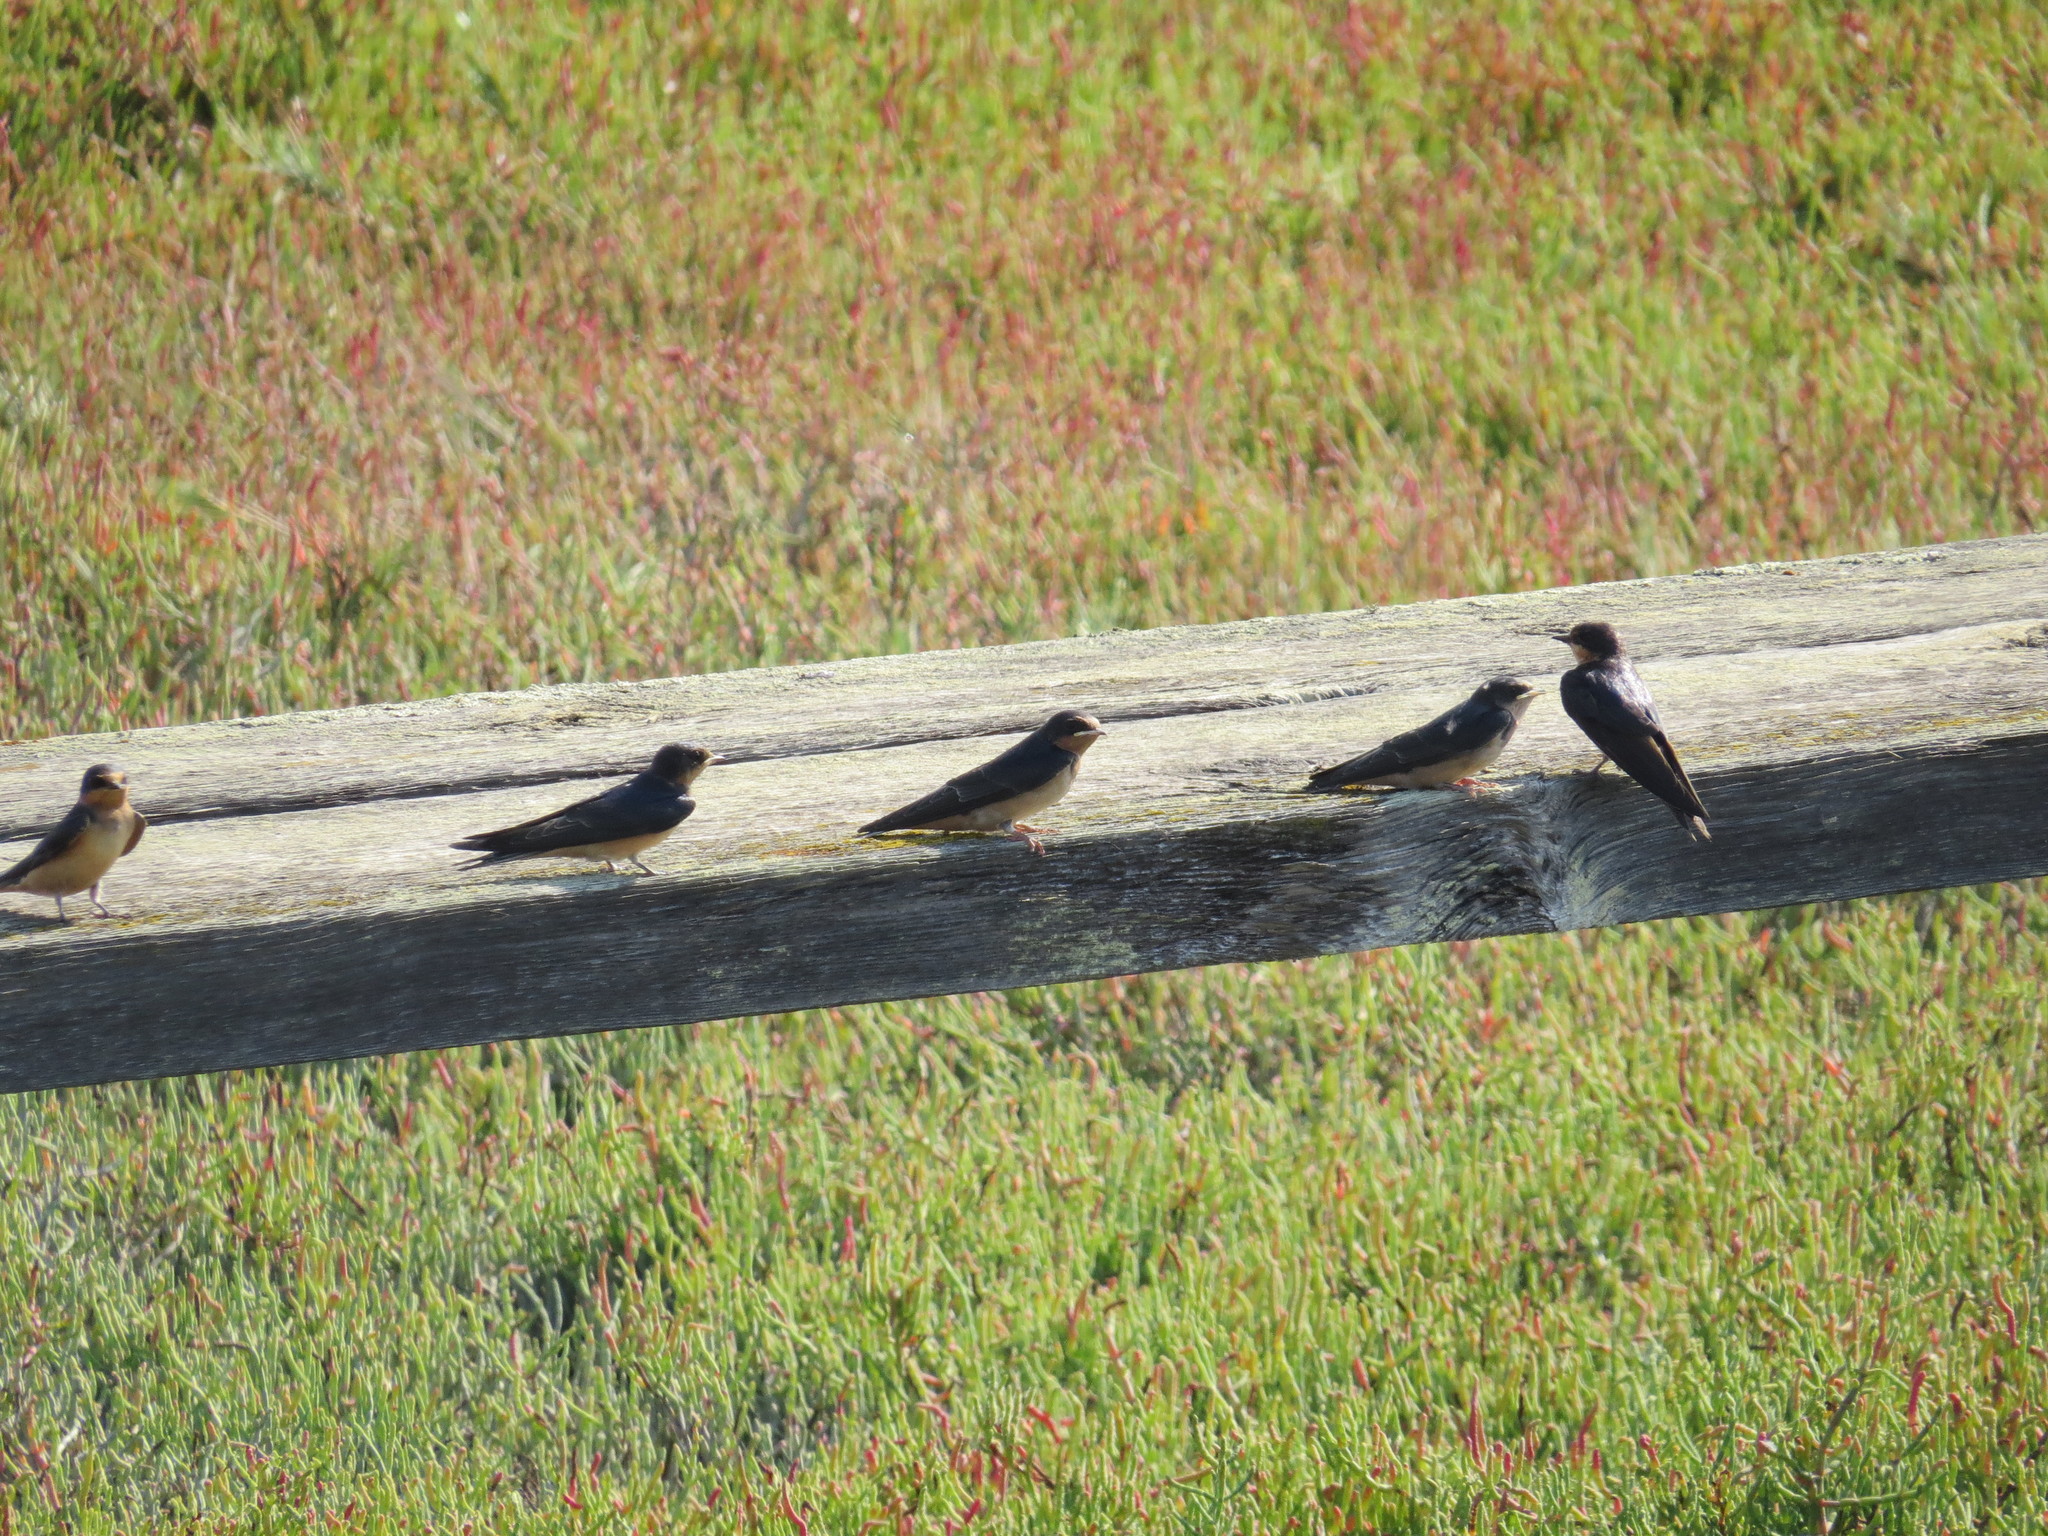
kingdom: Animalia
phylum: Chordata
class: Aves
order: Passeriformes
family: Hirundinidae
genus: Hirundo
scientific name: Hirundo rustica
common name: Barn swallow
